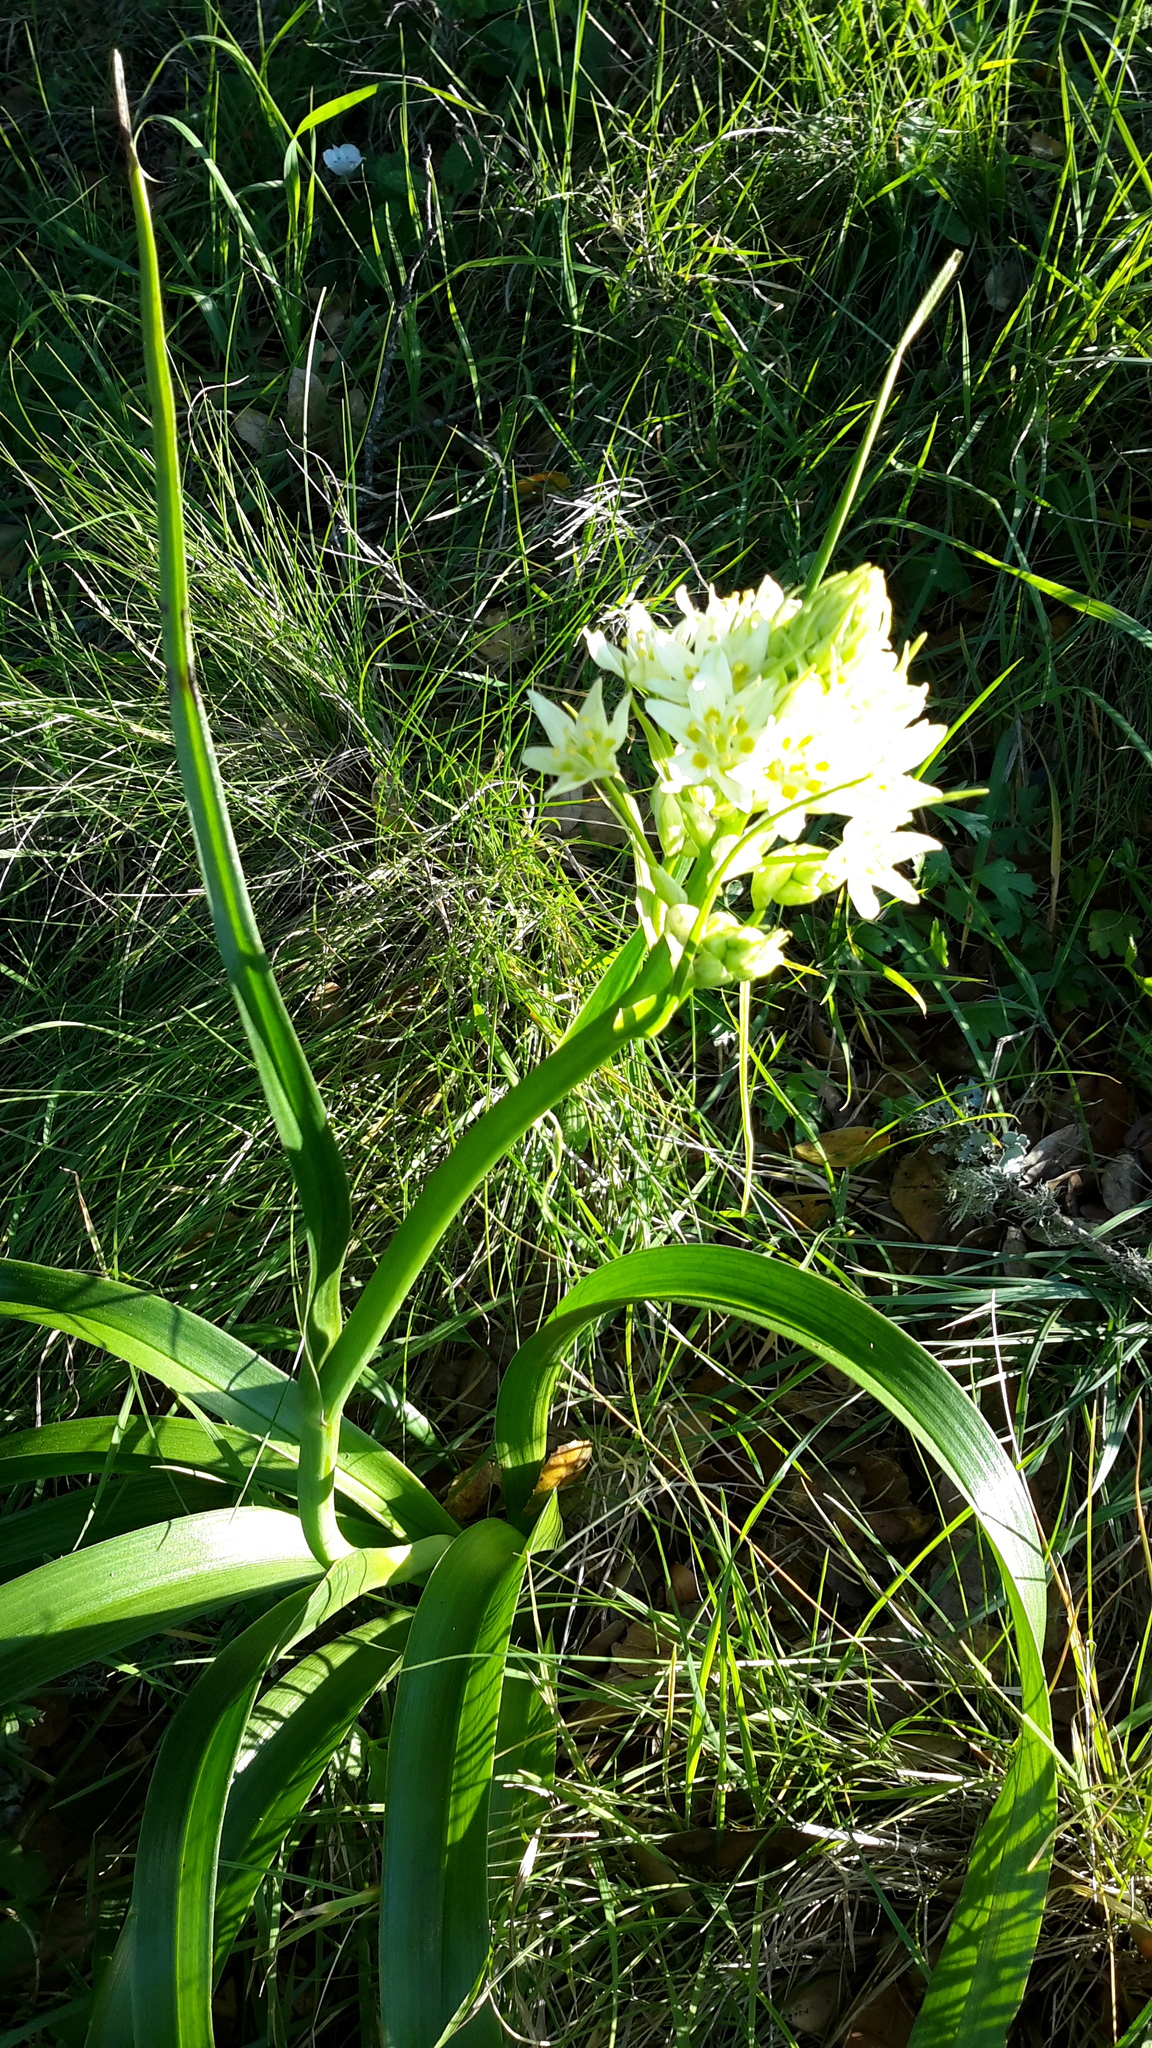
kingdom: Plantae
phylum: Tracheophyta
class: Liliopsida
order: Liliales
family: Melanthiaceae
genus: Toxicoscordion
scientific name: Toxicoscordion fremontii
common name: Fremont's death camas
